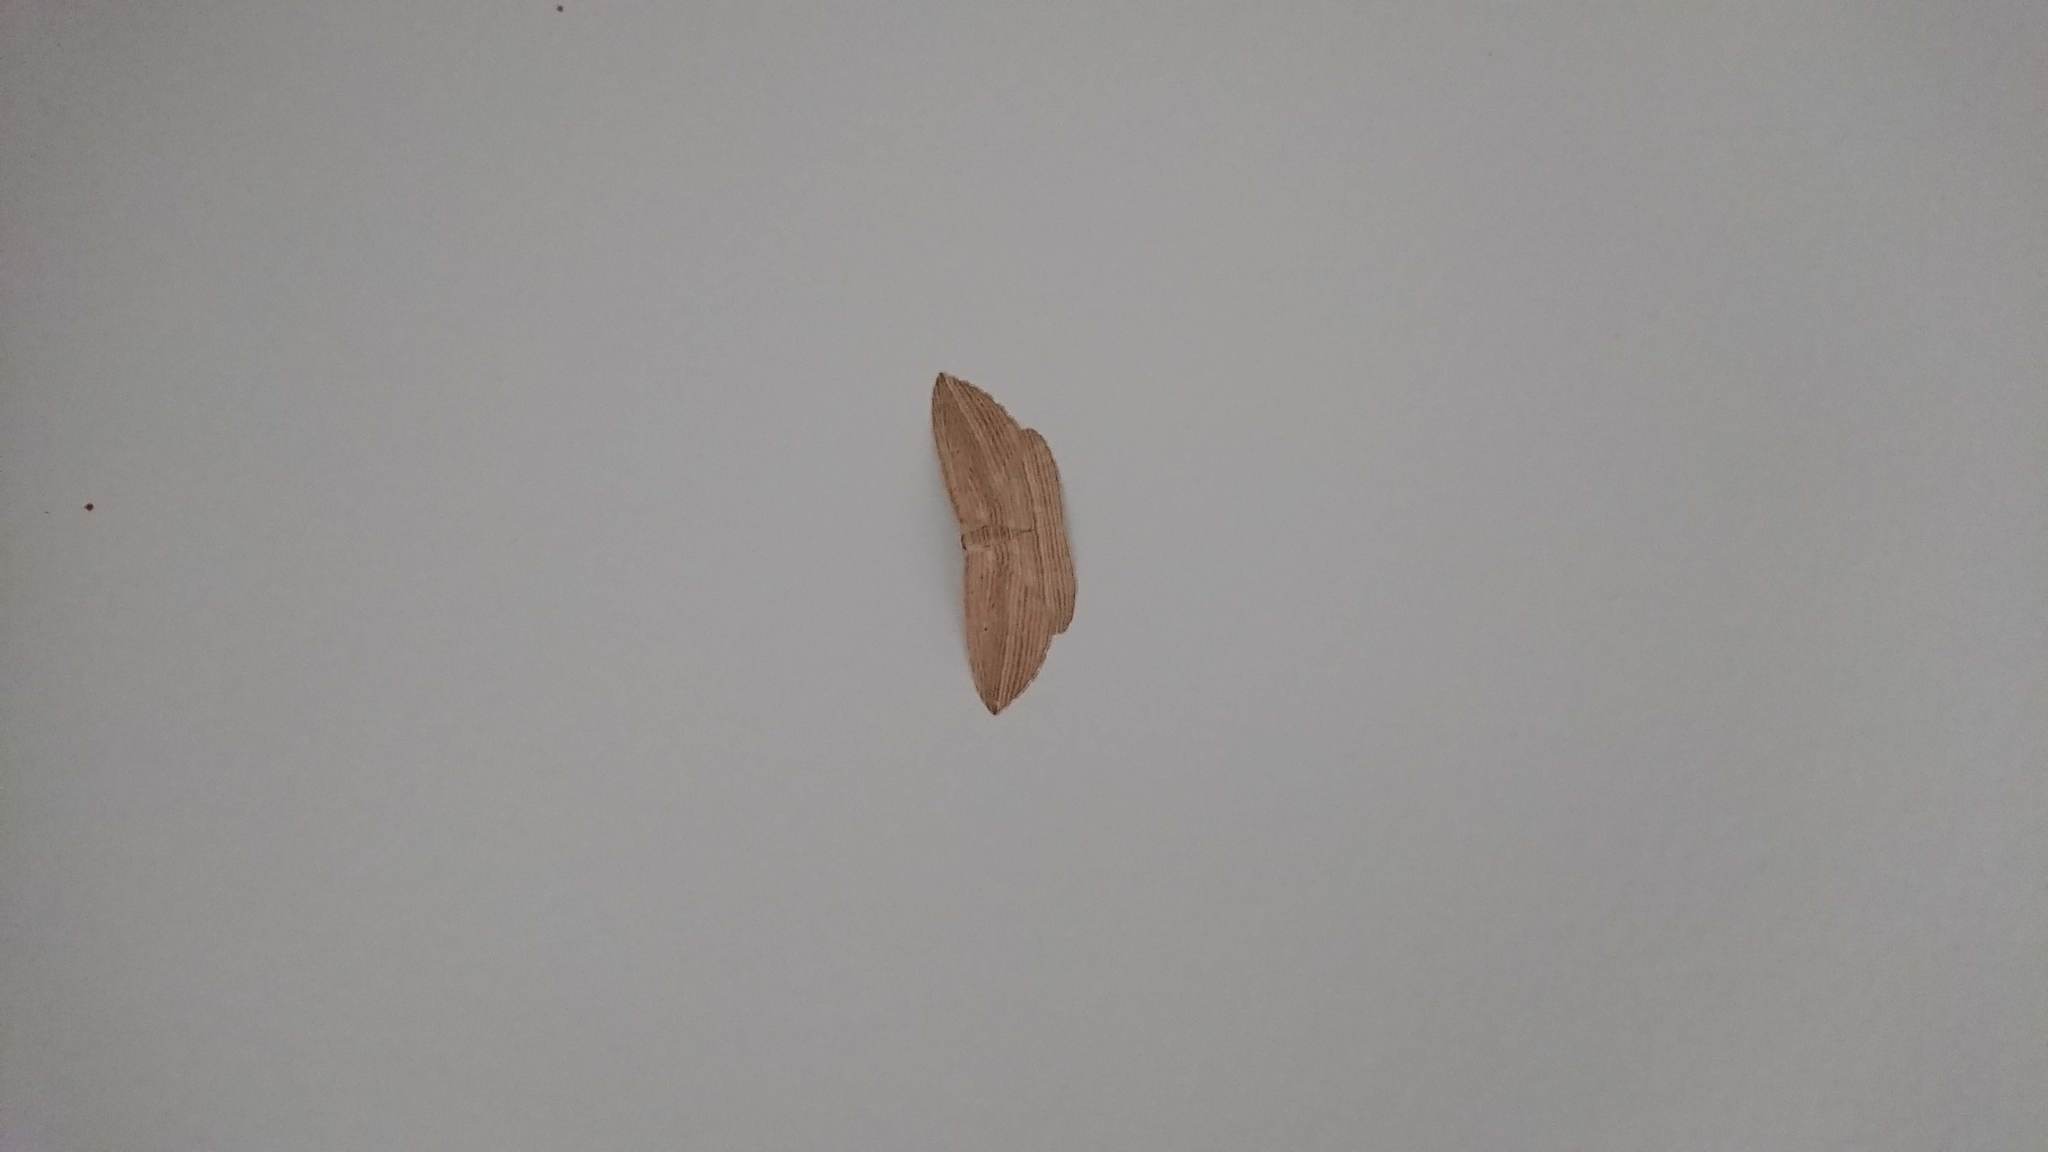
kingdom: Animalia
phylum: Arthropoda
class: Insecta
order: Lepidoptera
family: Geometridae
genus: Epiphryne
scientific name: Epiphryne verriculata
